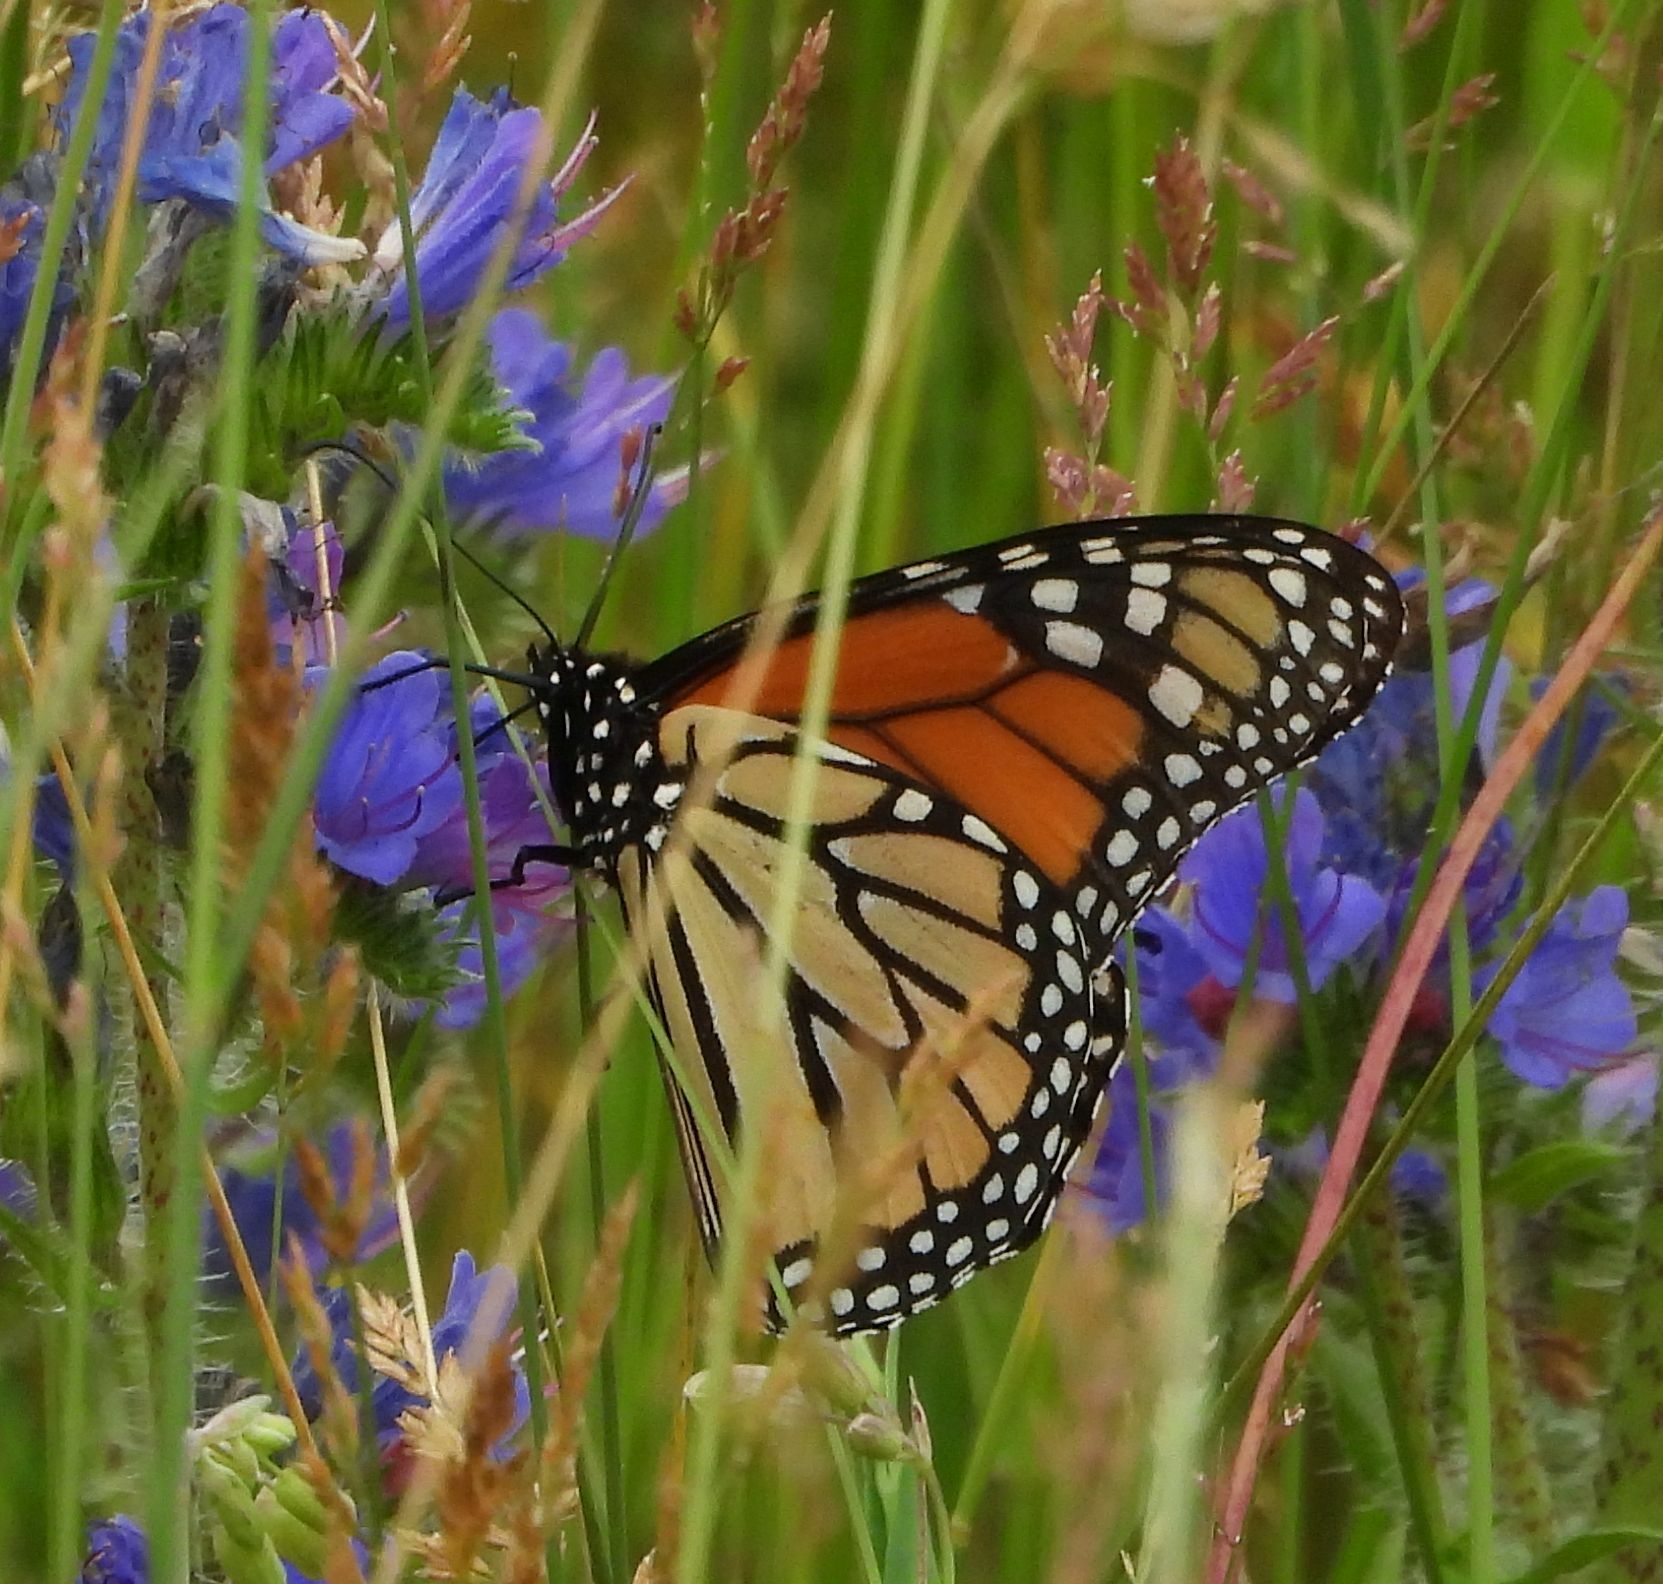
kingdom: Animalia
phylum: Arthropoda
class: Insecta
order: Lepidoptera
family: Nymphalidae
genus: Danaus
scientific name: Danaus plexippus
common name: Monarch
